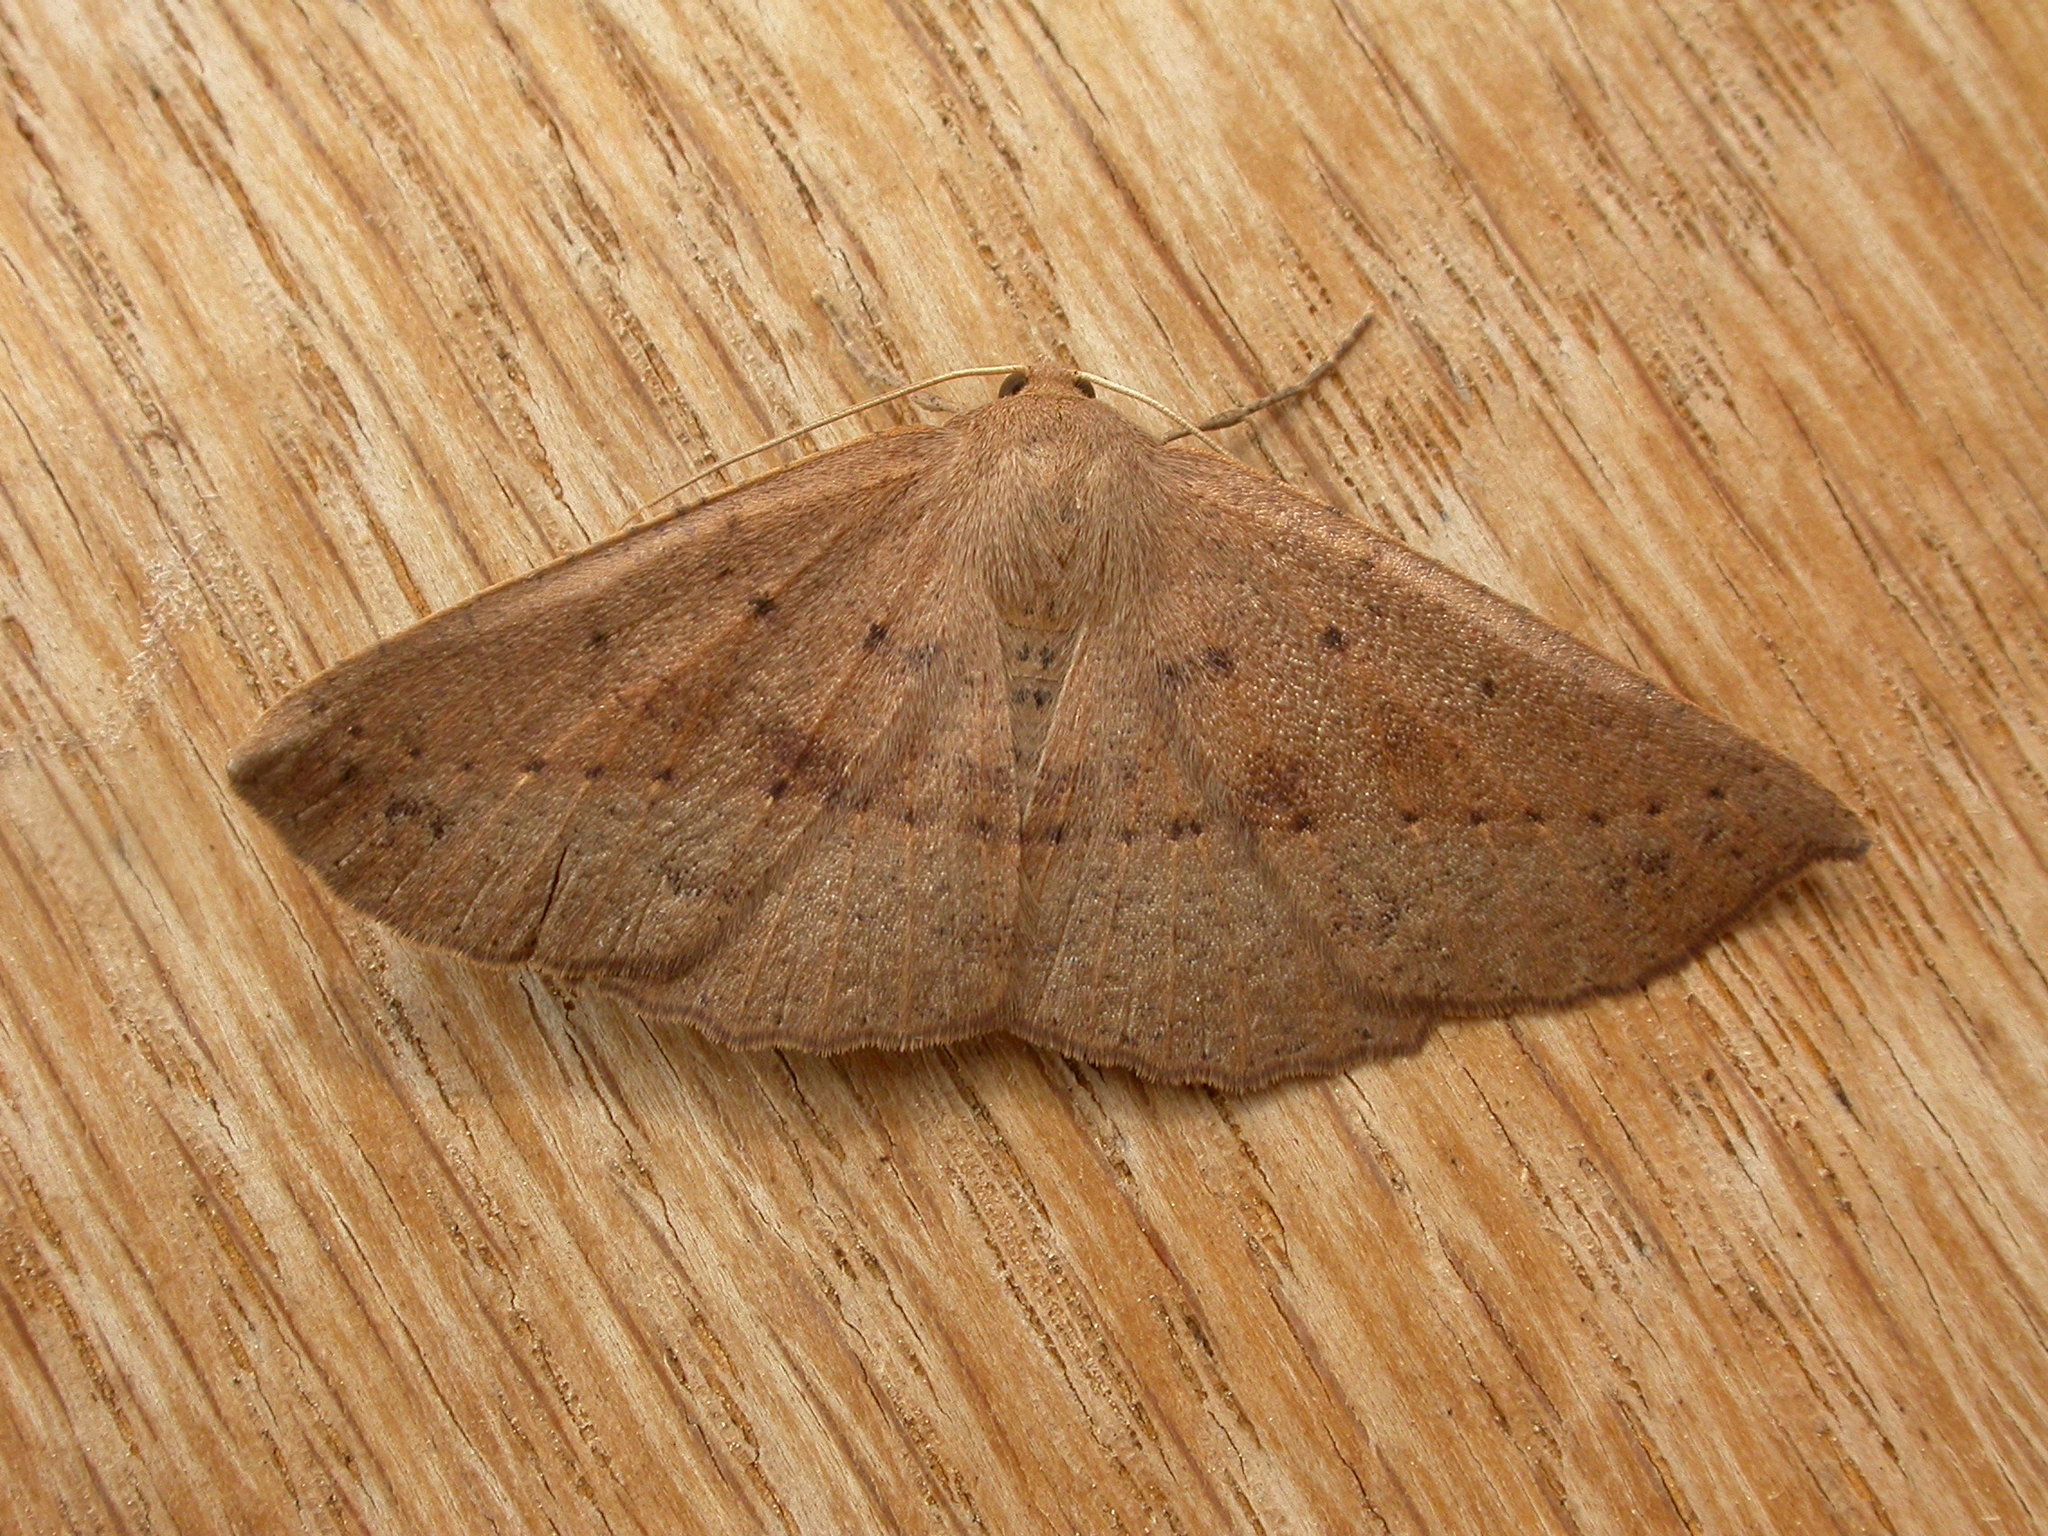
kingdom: Animalia
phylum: Arthropoda
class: Insecta
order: Lepidoptera
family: Geometridae
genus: Idiodes
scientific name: Idiodes siculoides
